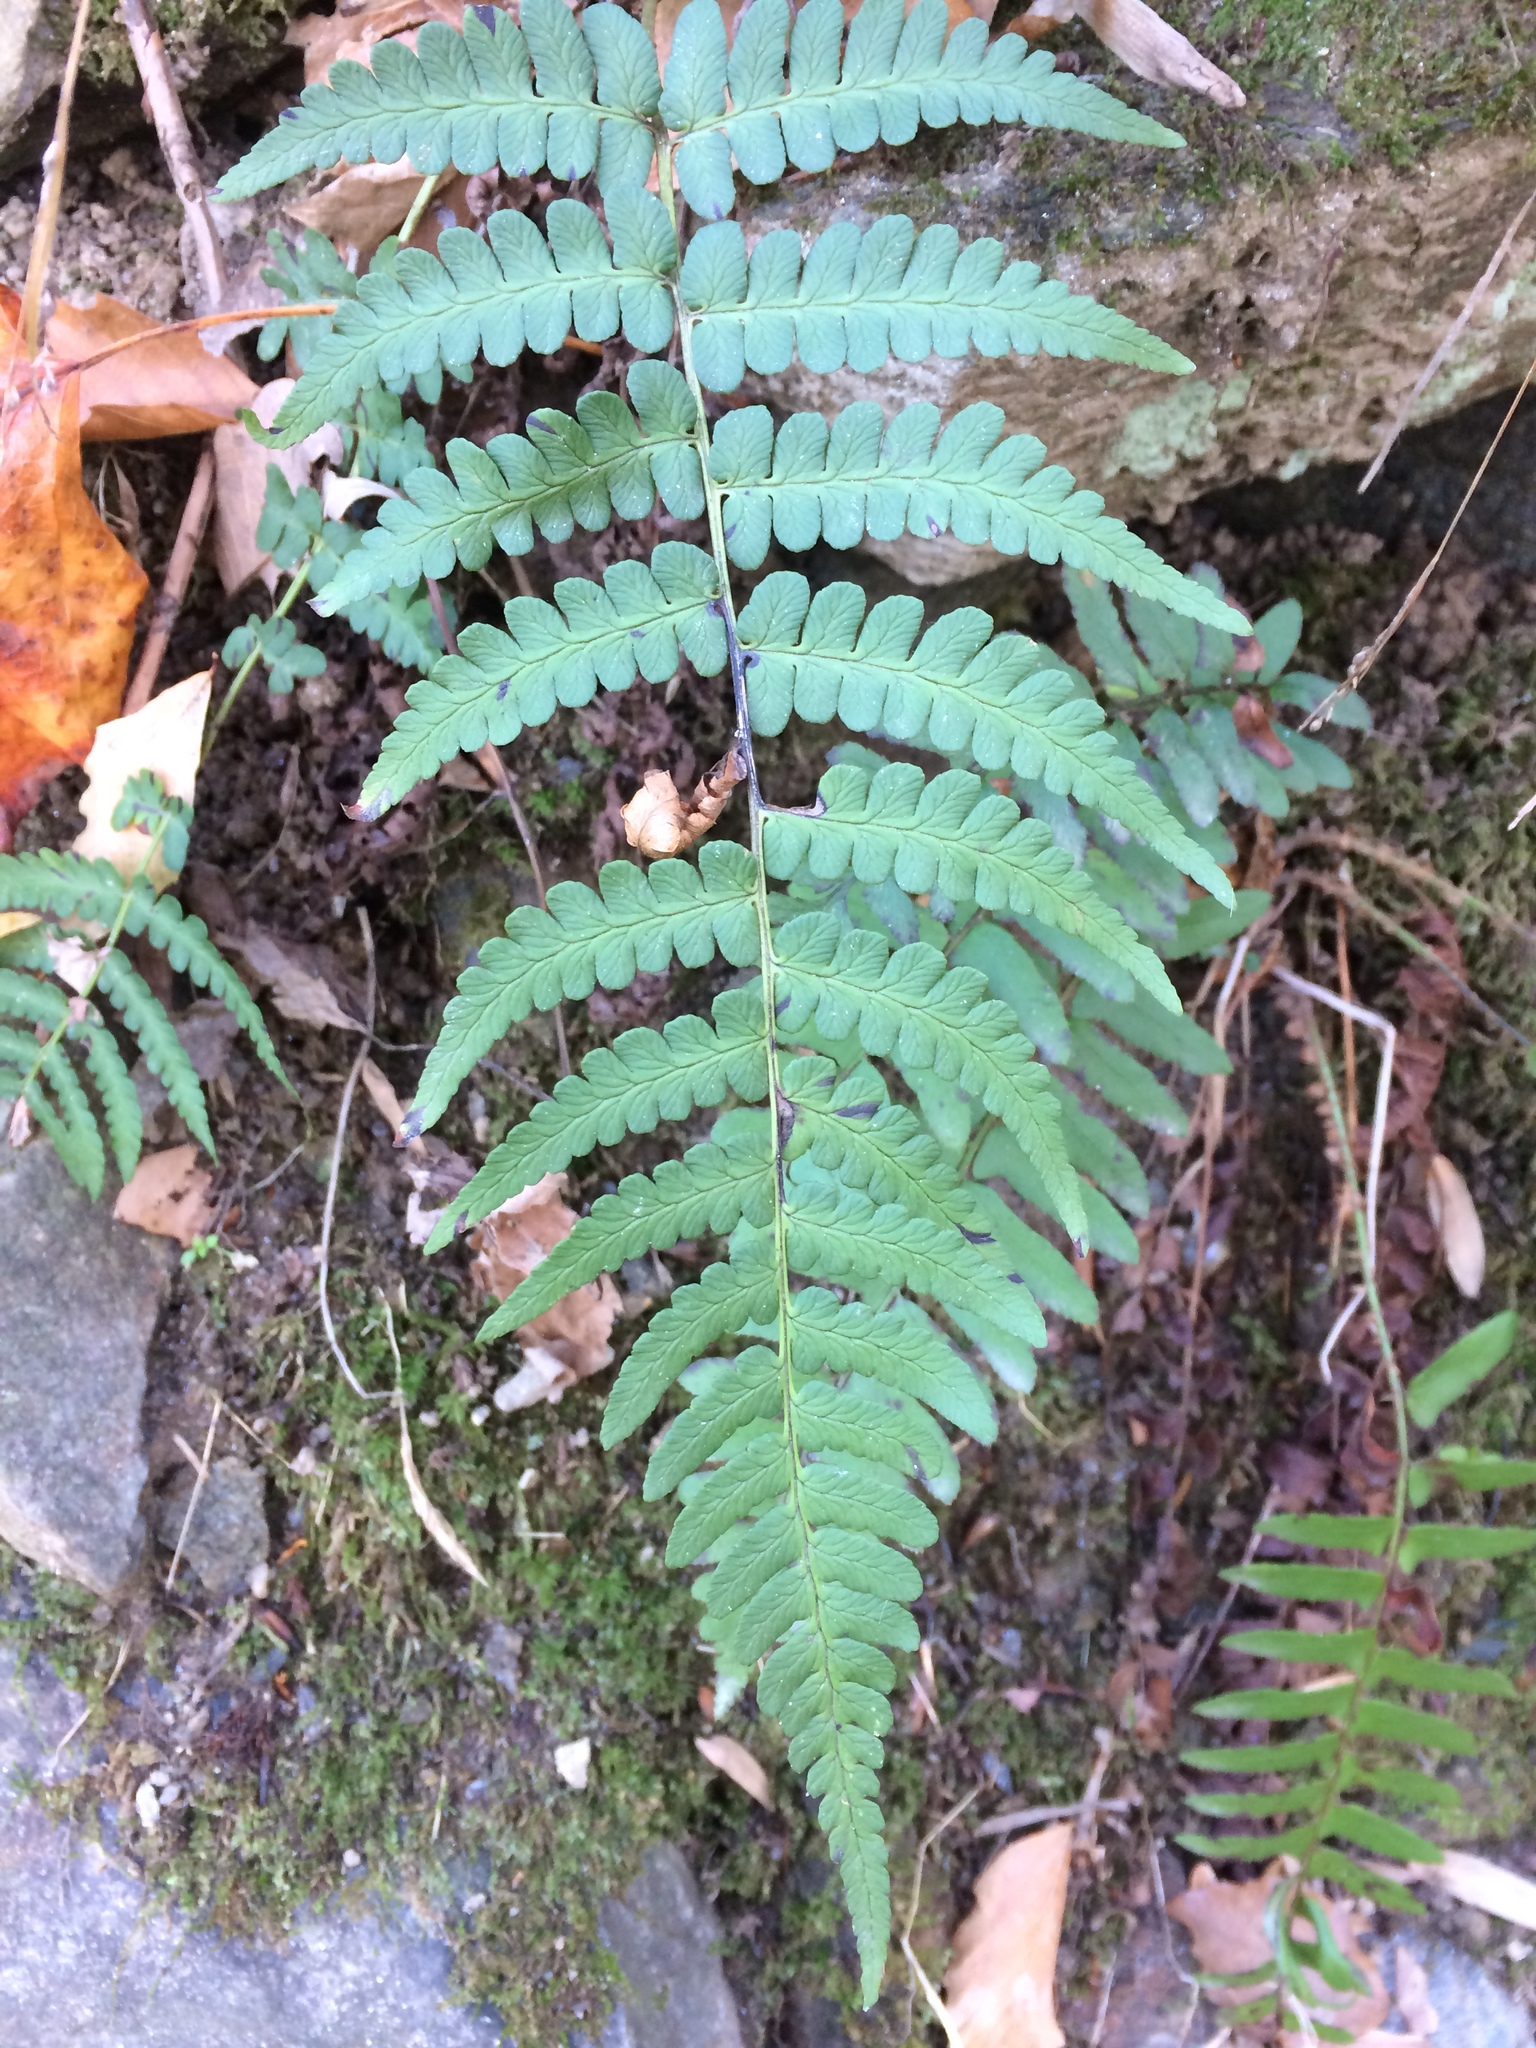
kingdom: Plantae
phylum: Tracheophyta
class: Polypodiopsida
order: Polypodiales
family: Dryopteridaceae
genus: Dryopteris
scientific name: Dryopteris marginalis
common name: Marginal wood fern
